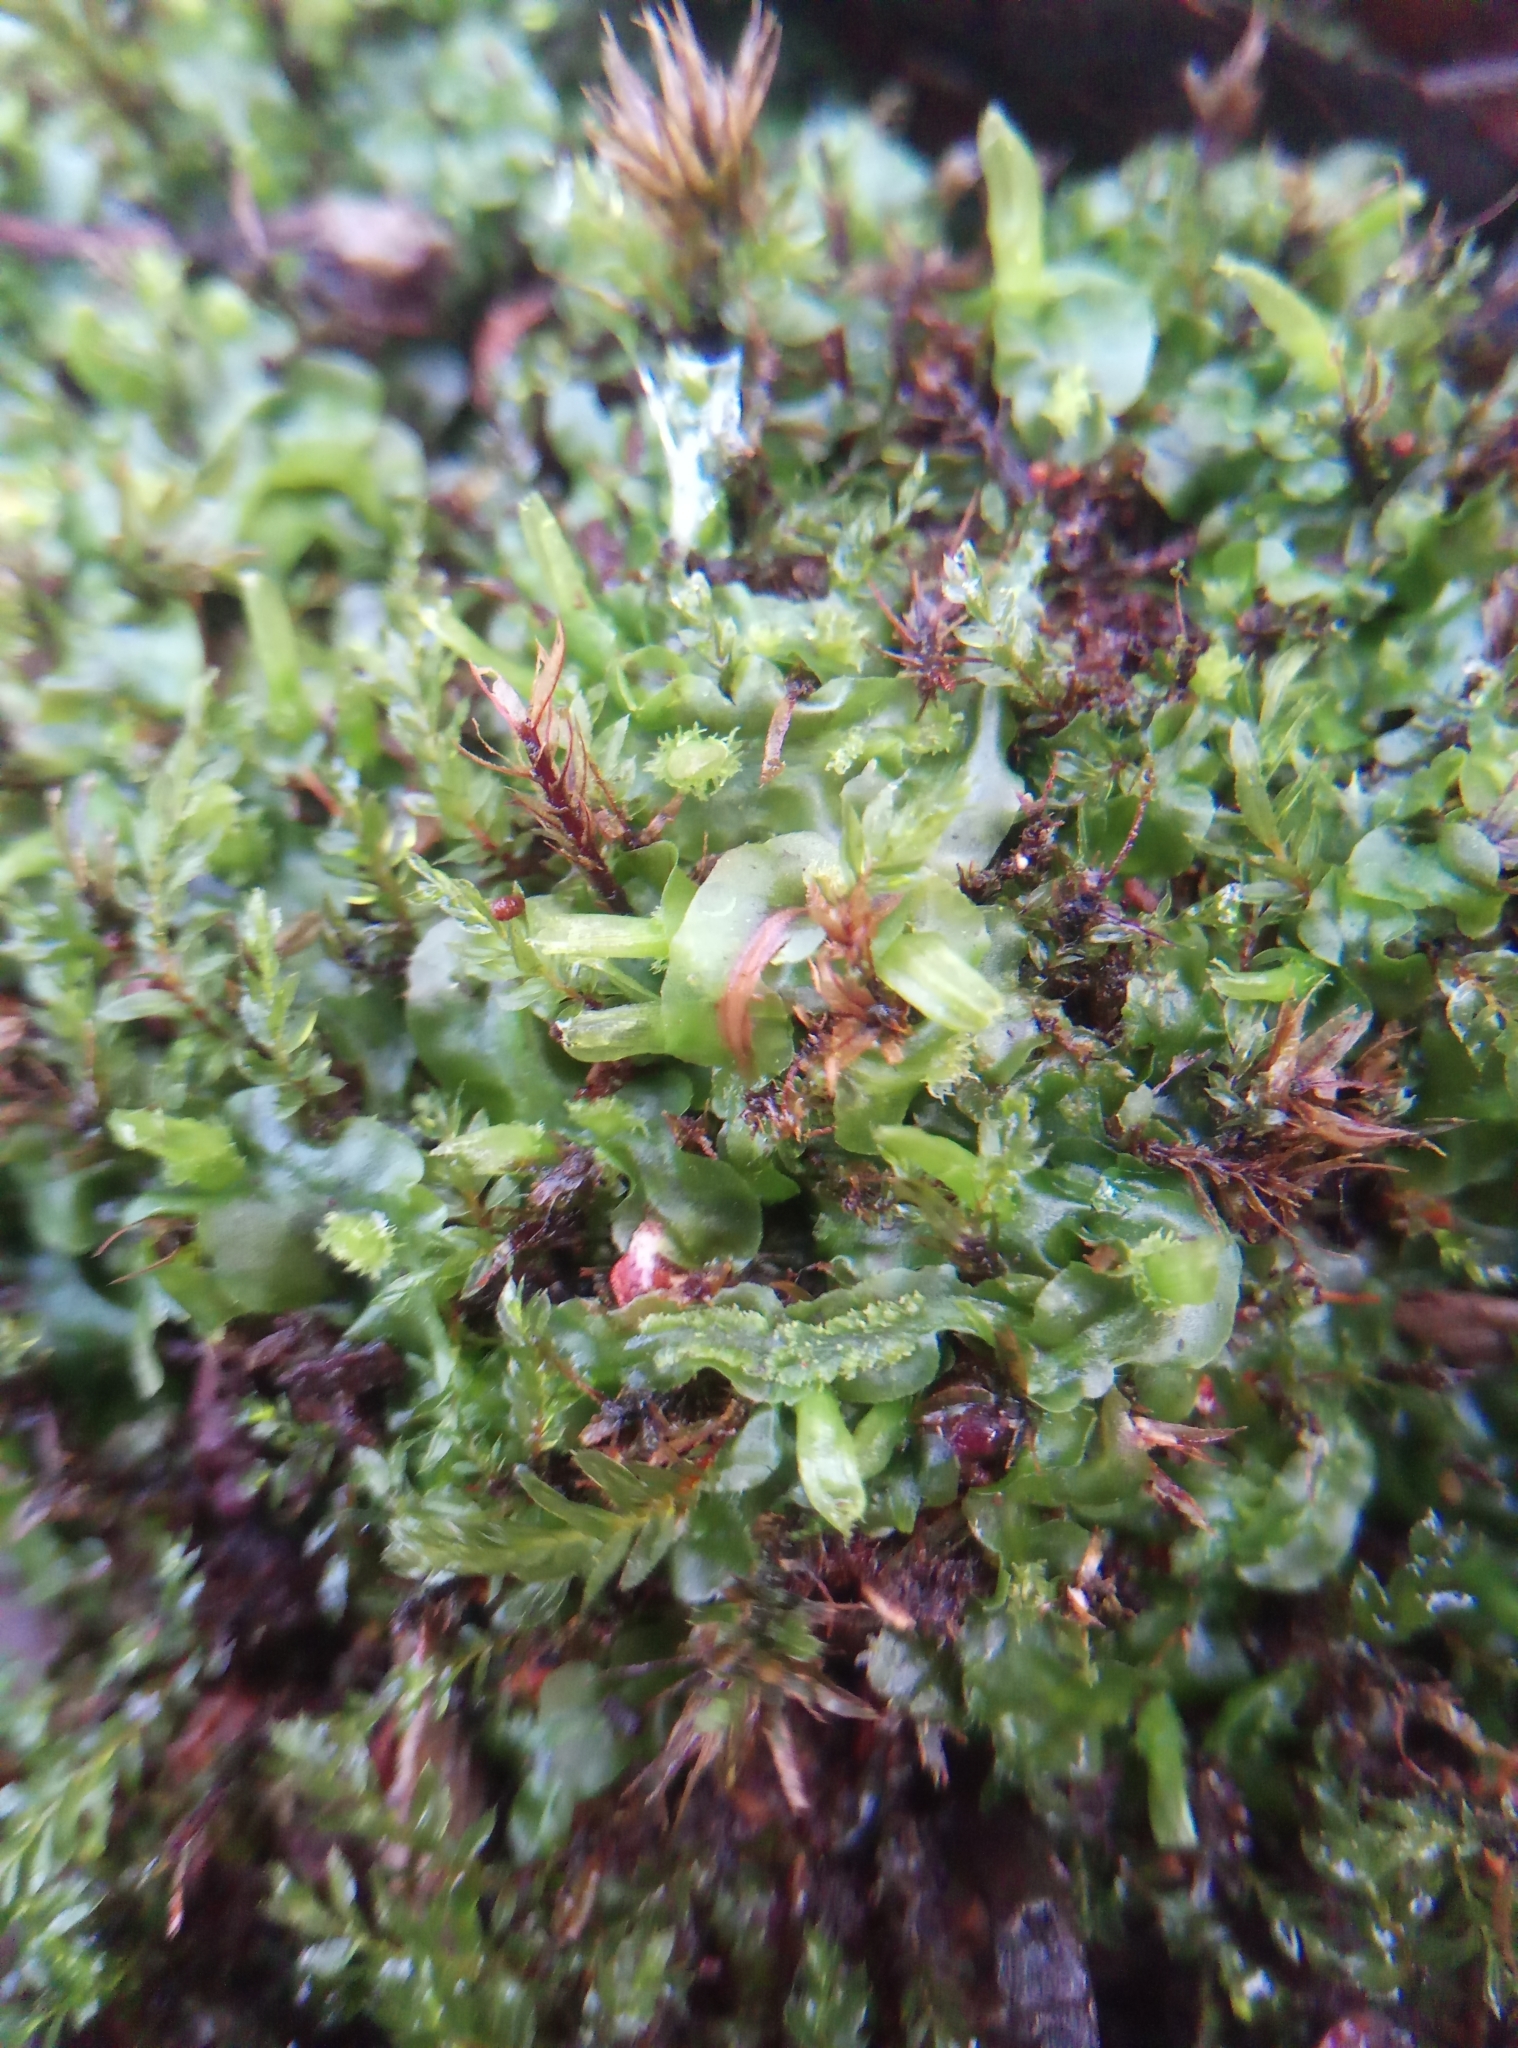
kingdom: Plantae
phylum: Marchantiophyta
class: Jungermanniopsida
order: Pallaviciniales
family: Pallaviciniaceae
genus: Pallavicinia
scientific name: Pallavicinia lyellii
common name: Veilwort
